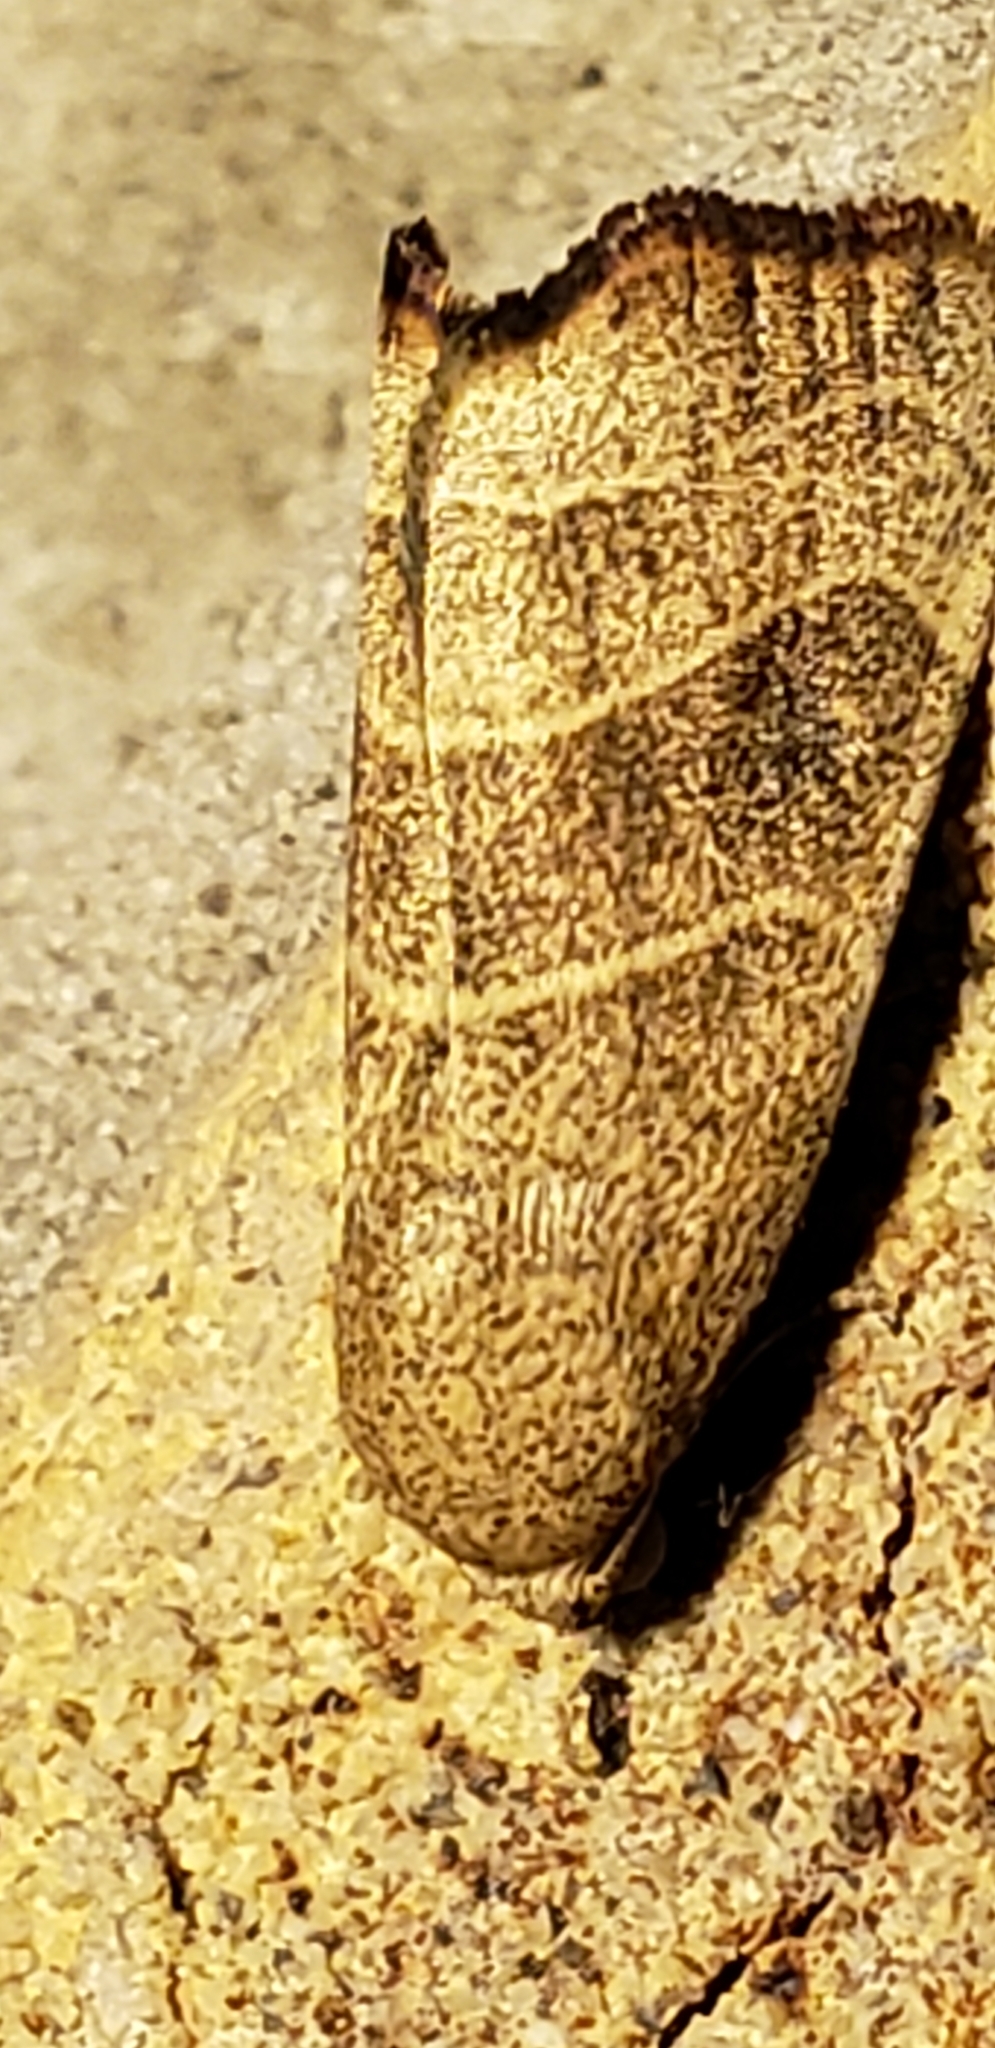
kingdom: Animalia
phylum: Arthropoda
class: Insecta
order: Lepidoptera
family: Noctuidae
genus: Bagisara
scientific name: Bagisara repanda
